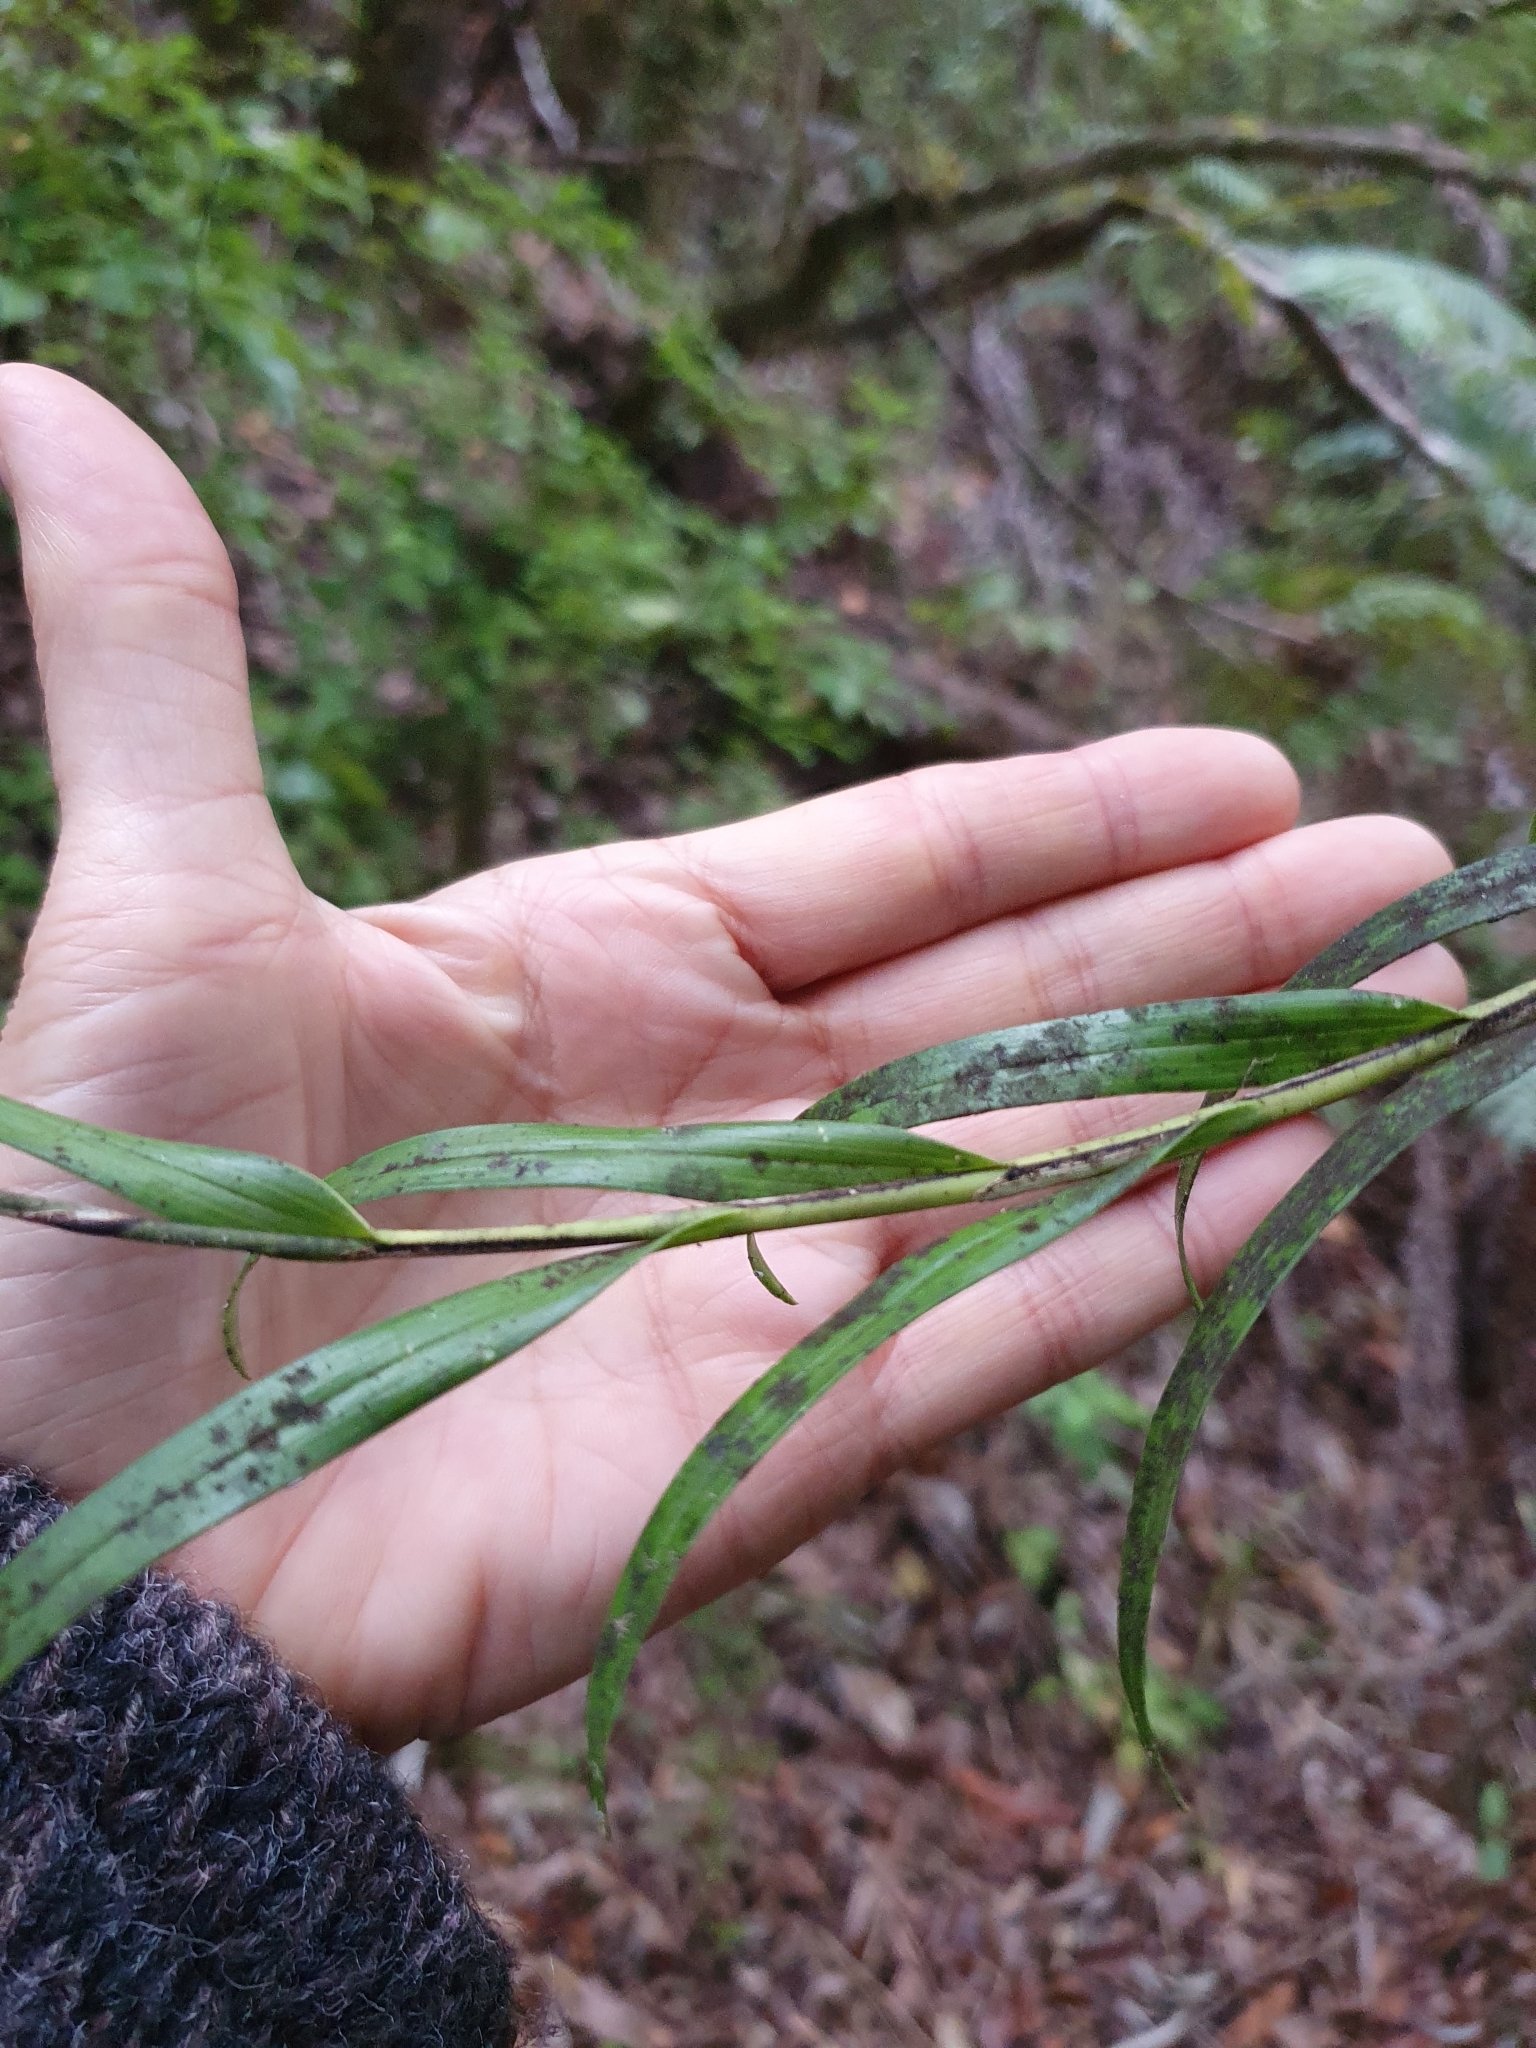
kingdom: Plantae
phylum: Tracheophyta
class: Liliopsida
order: Asparagales
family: Orchidaceae
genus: Earina
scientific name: Earina autumnalis
